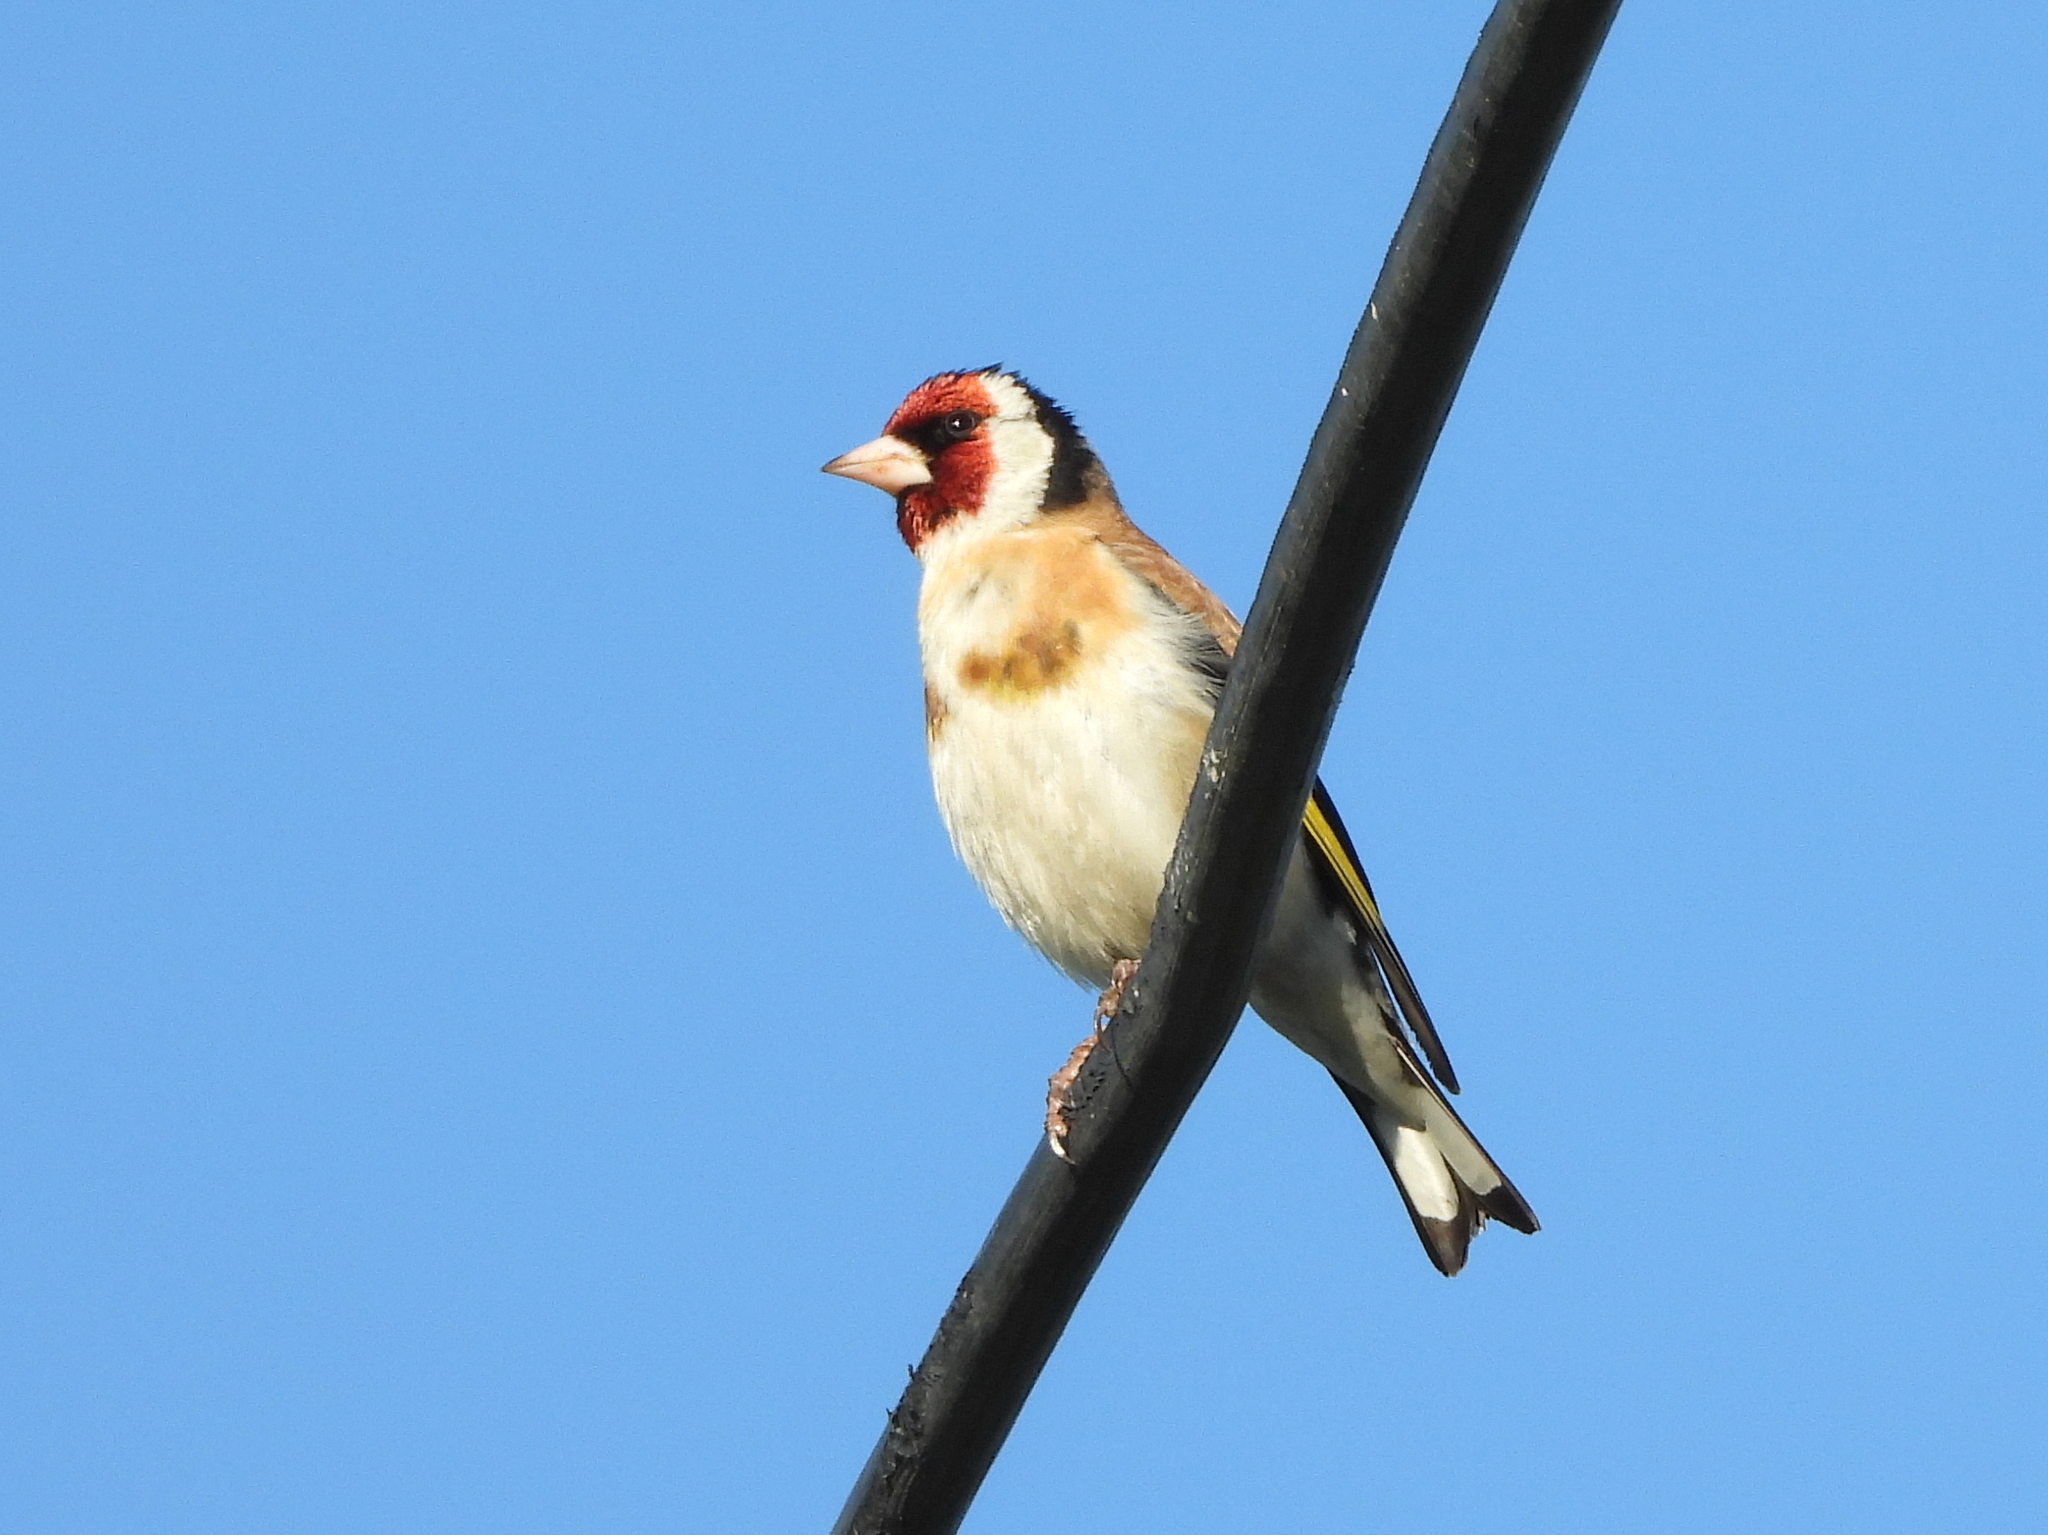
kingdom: Animalia
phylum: Chordata
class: Aves
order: Passeriformes
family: Fringillidae
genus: Carduelis
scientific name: Carduelis carduelis
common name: European goldfinch
